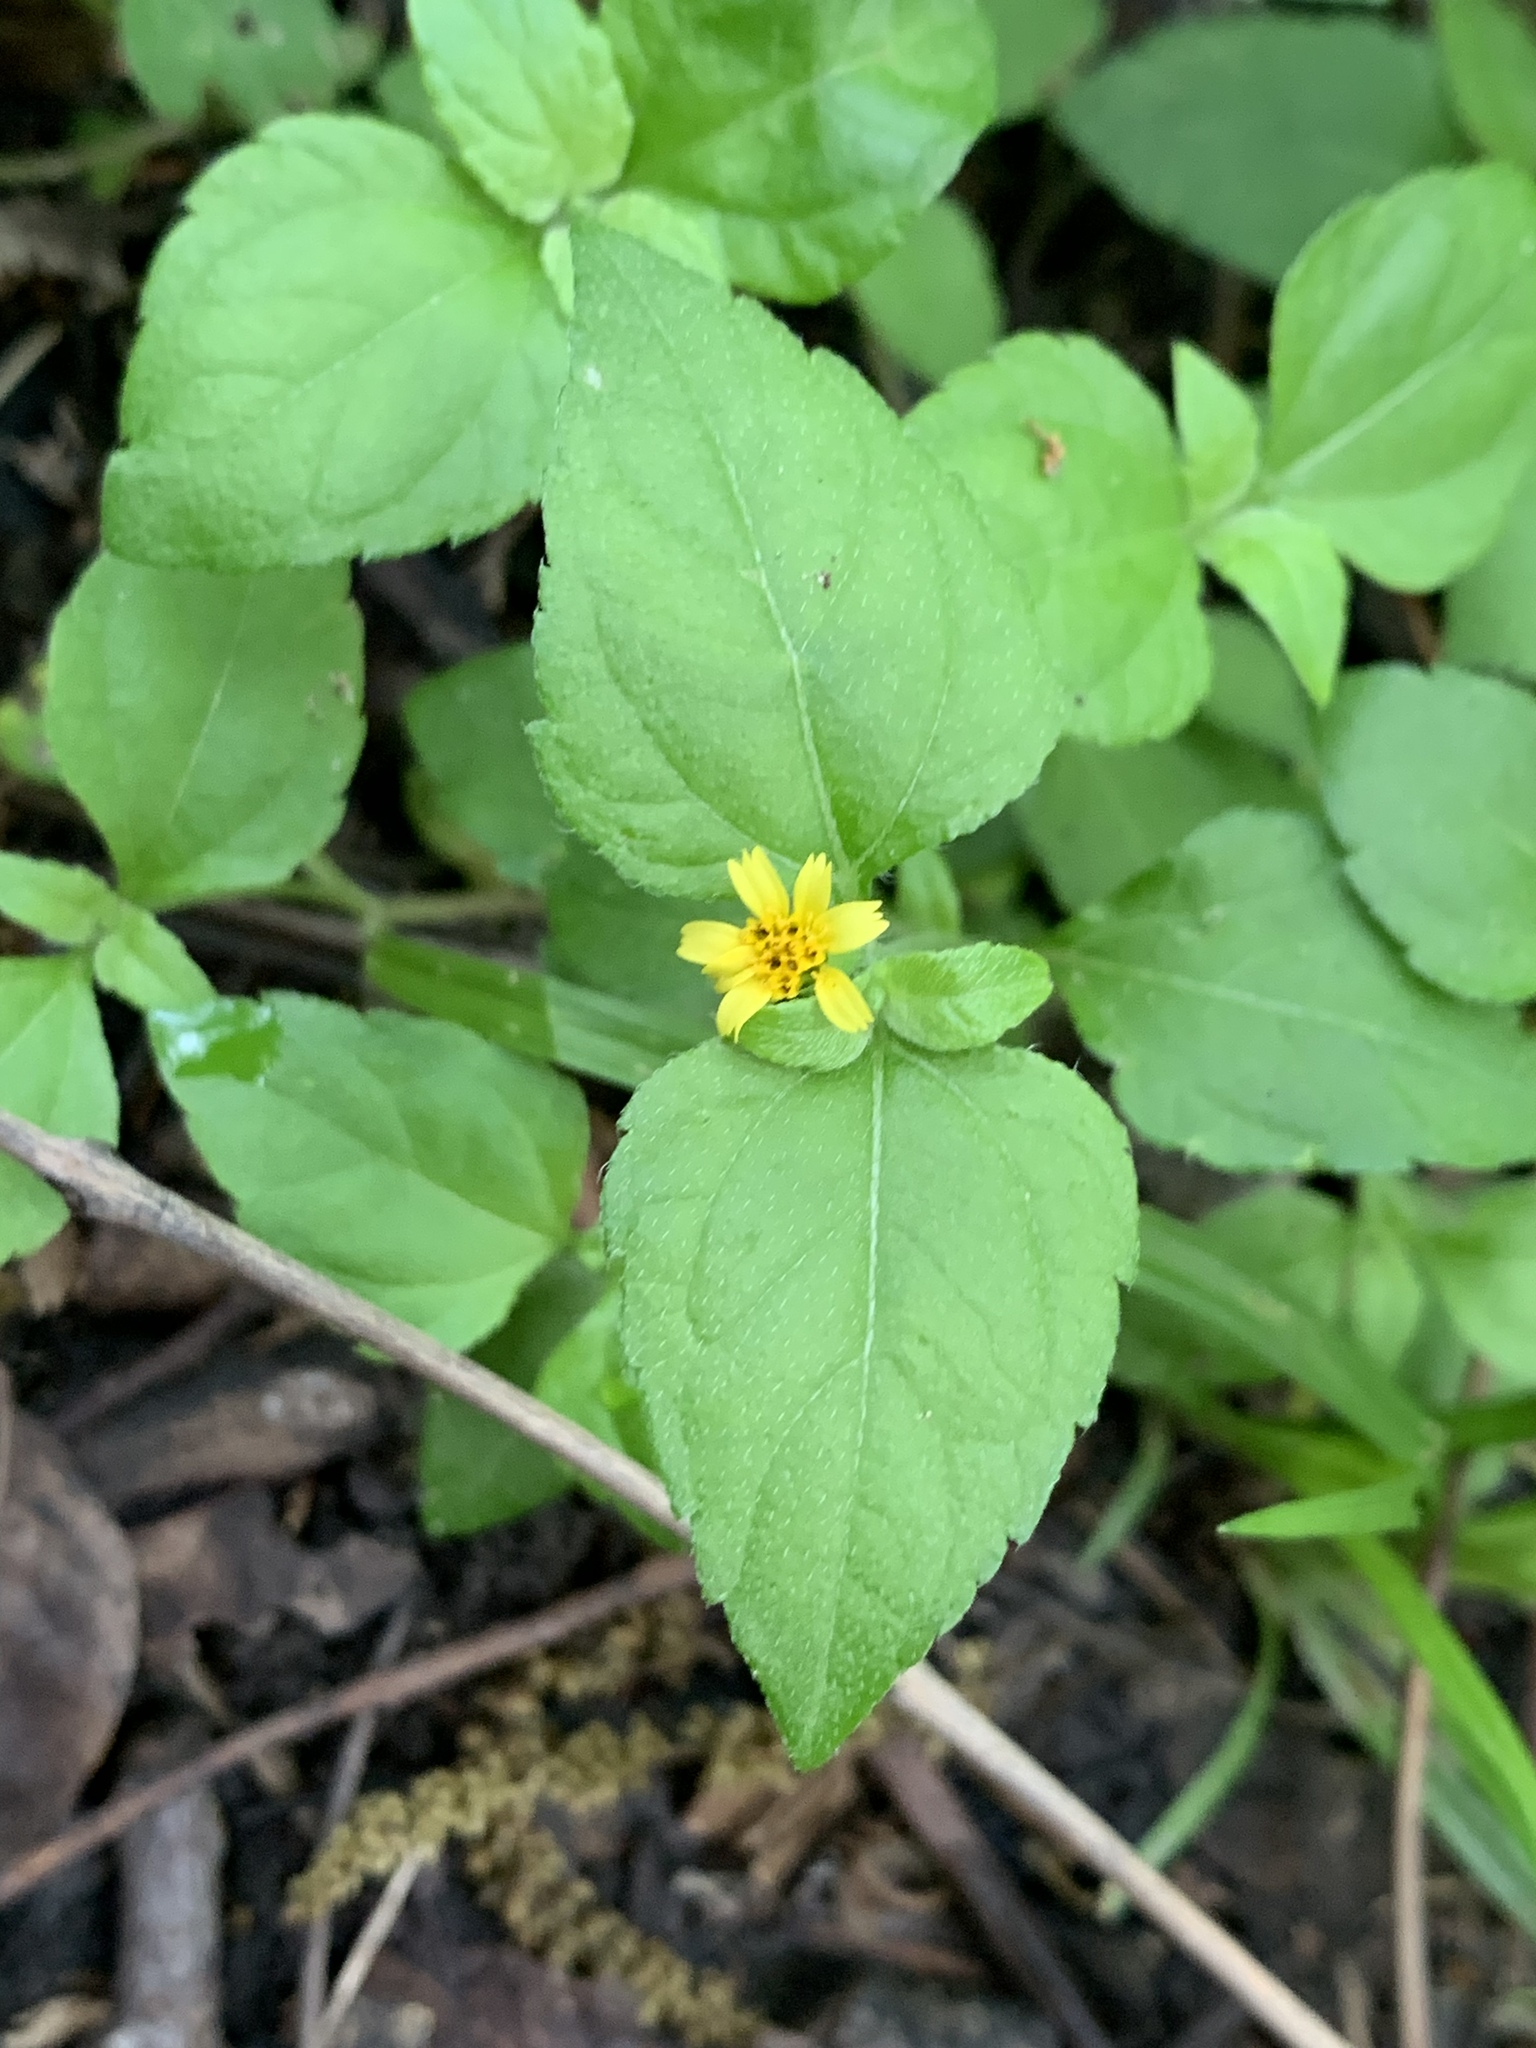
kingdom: Plantae
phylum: Tracheophyta
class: Magnoliopsida
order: Asterales
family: Asteraceae
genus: Calyptocarpus
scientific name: Calyptocarpus vialis
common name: Straggler daisy
